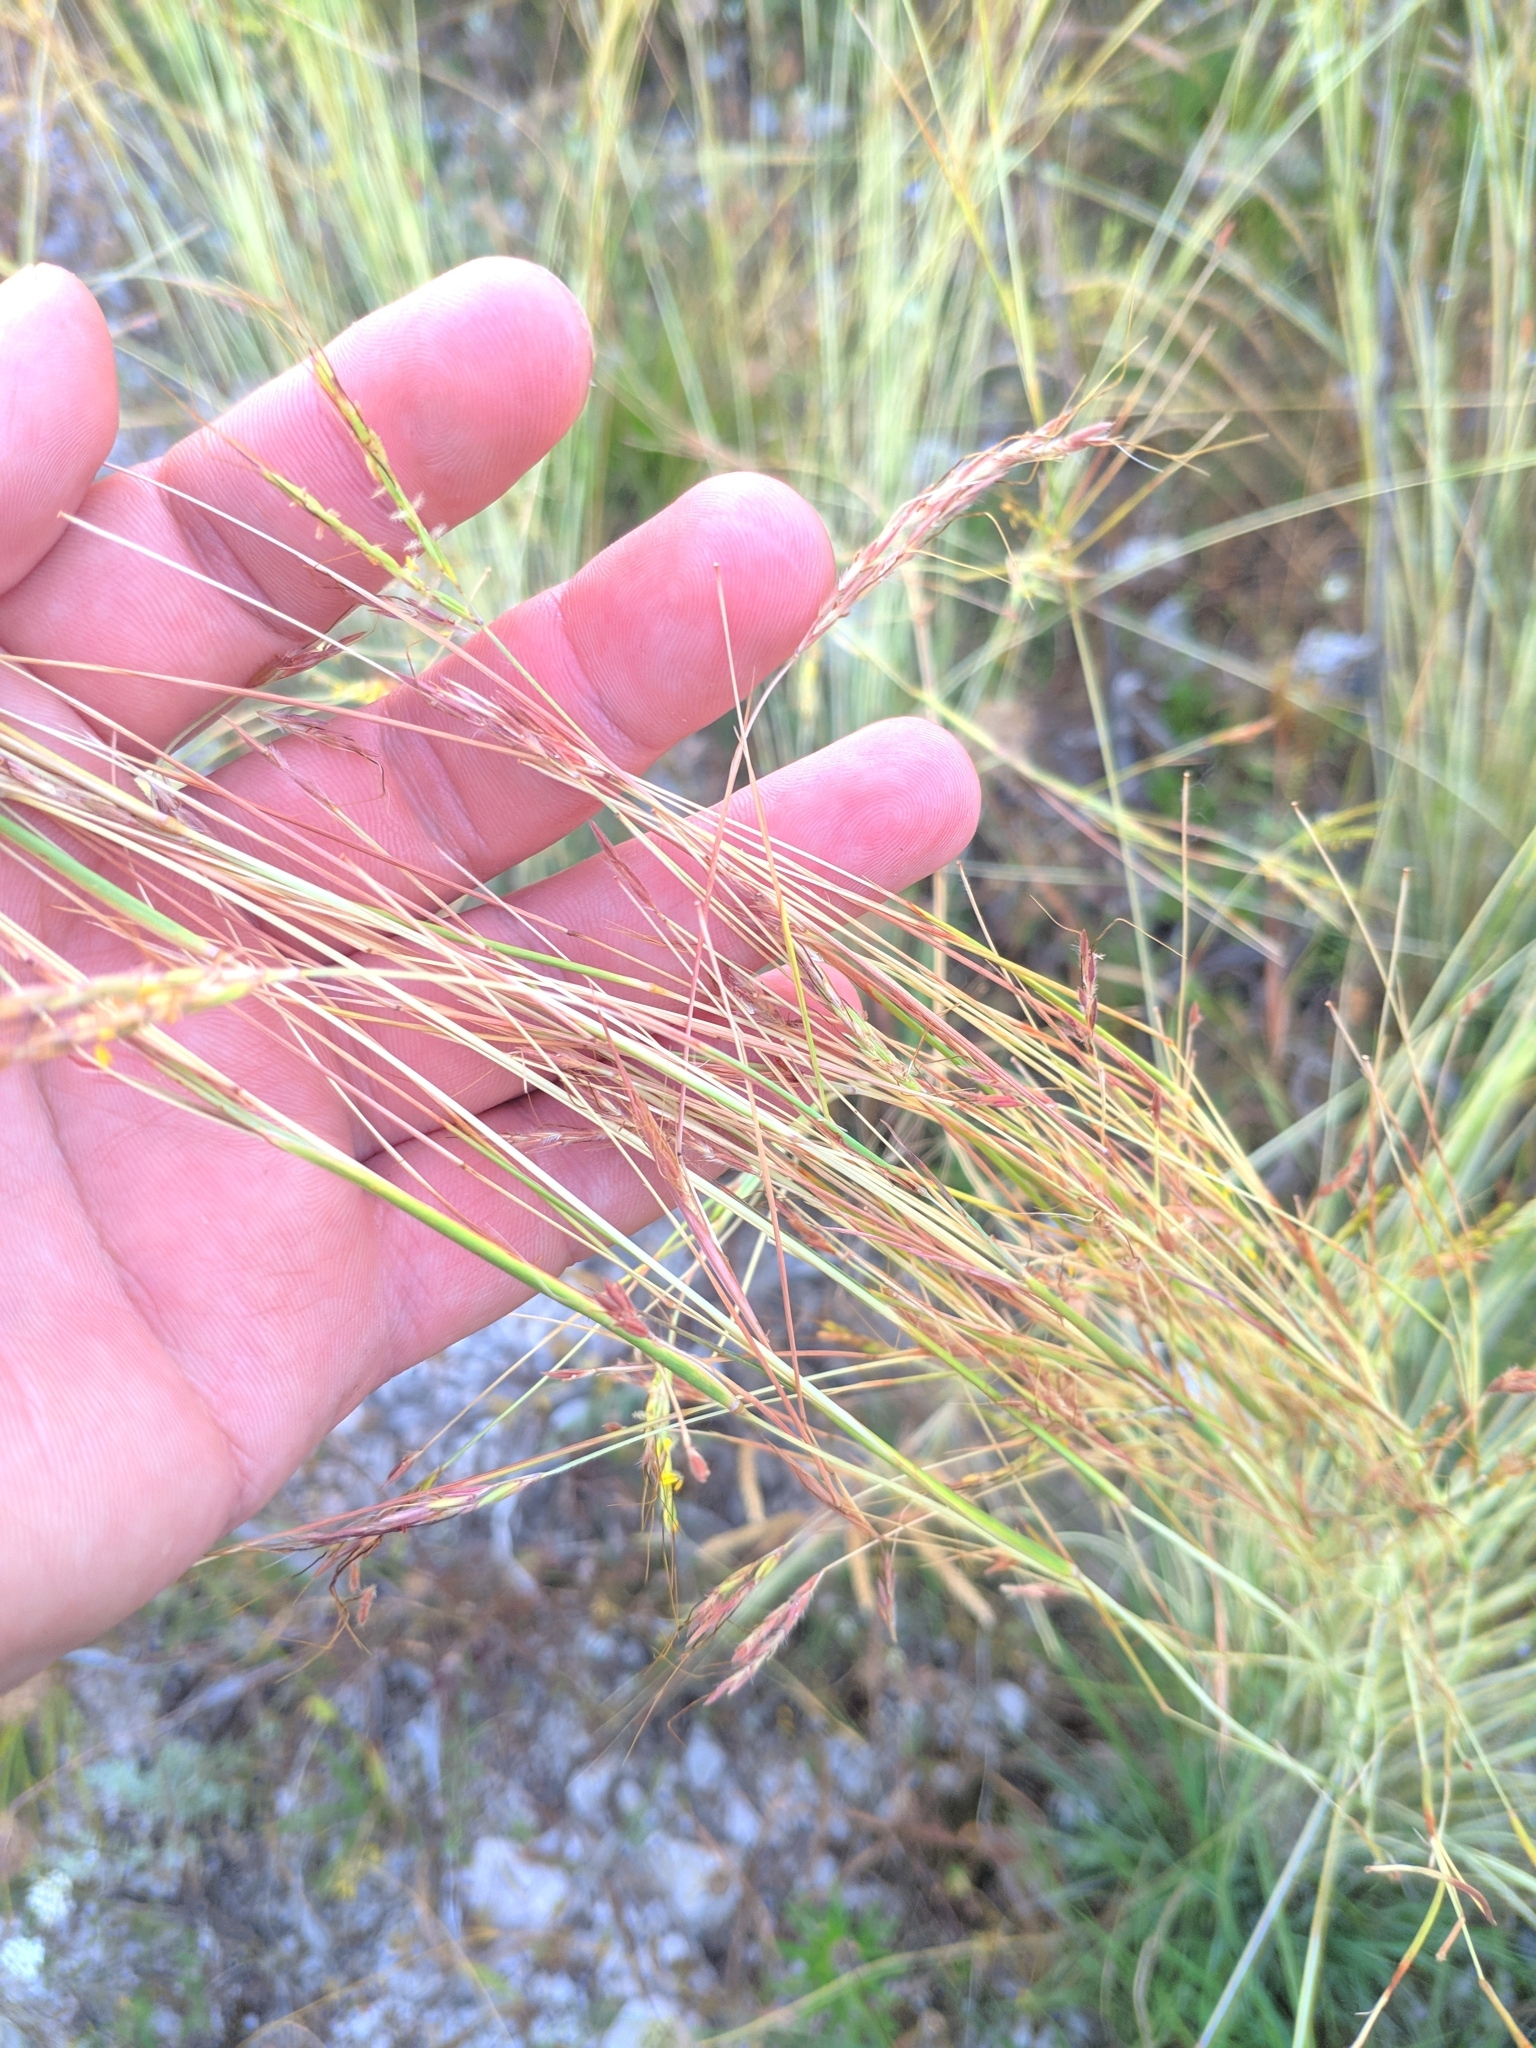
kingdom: Plantae
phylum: Tracheophyta
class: Liliopsida
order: Poales
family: Poaceae
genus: Hyparrhenia
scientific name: Hyparrhenia hirta
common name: Thatching grass
